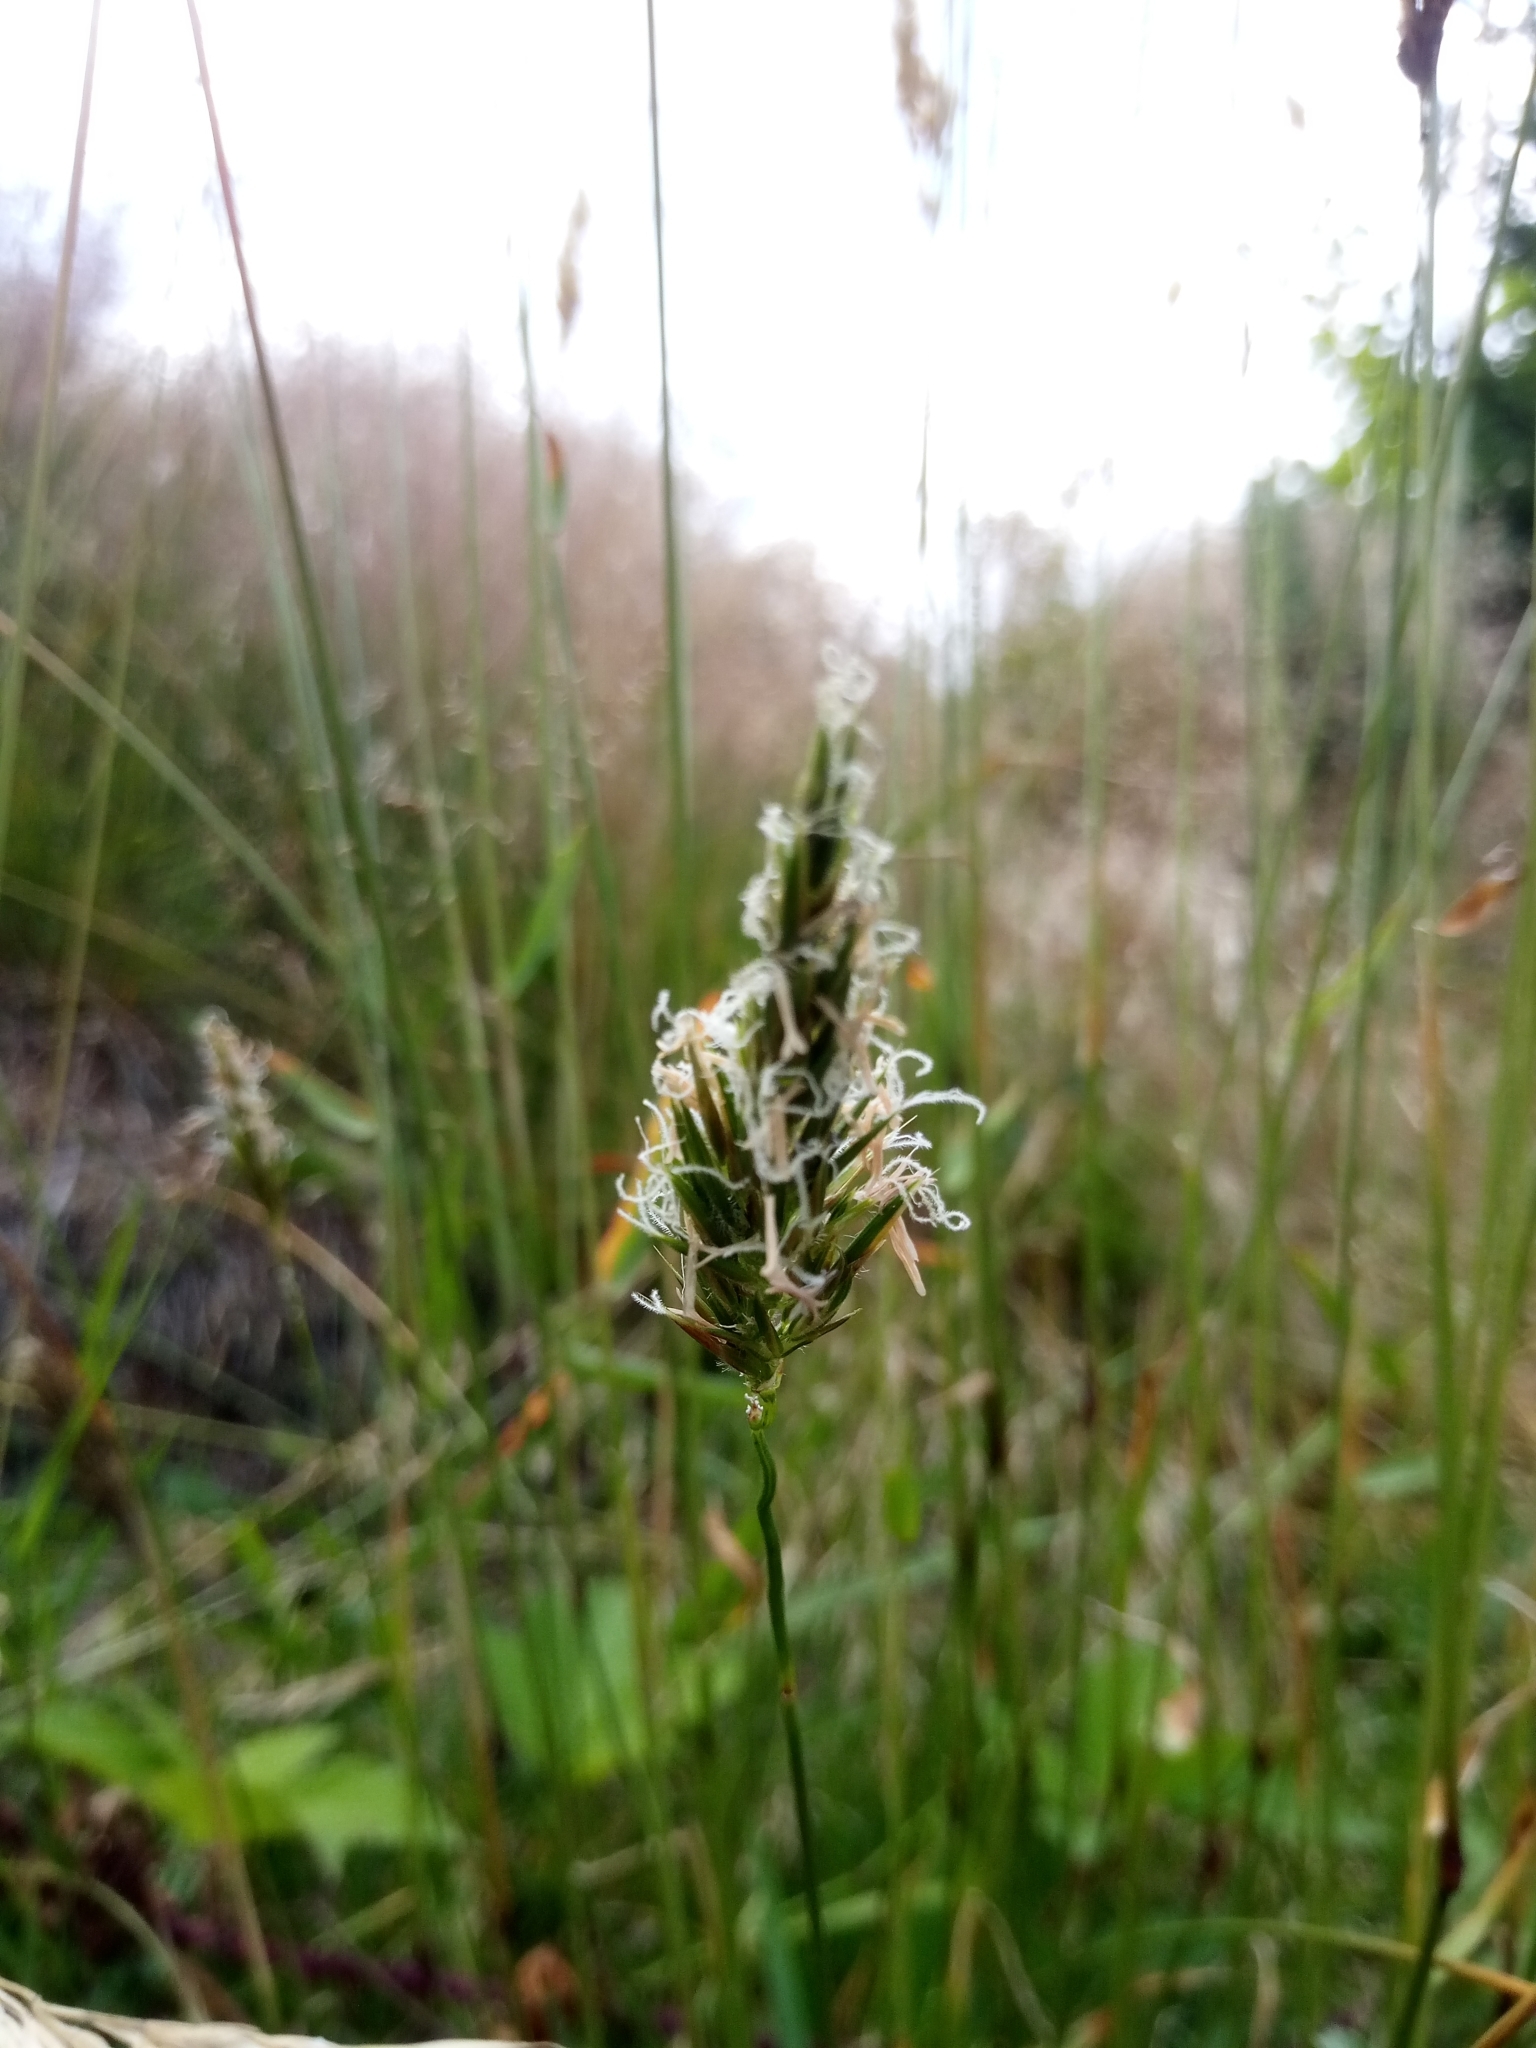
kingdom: Plantae
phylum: Tracheophyta
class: Liliopsida
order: Poales
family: Poaceae
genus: Anthoxanthum
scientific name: Anthoxanthum odoratum
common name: Sweet vernalgrass
